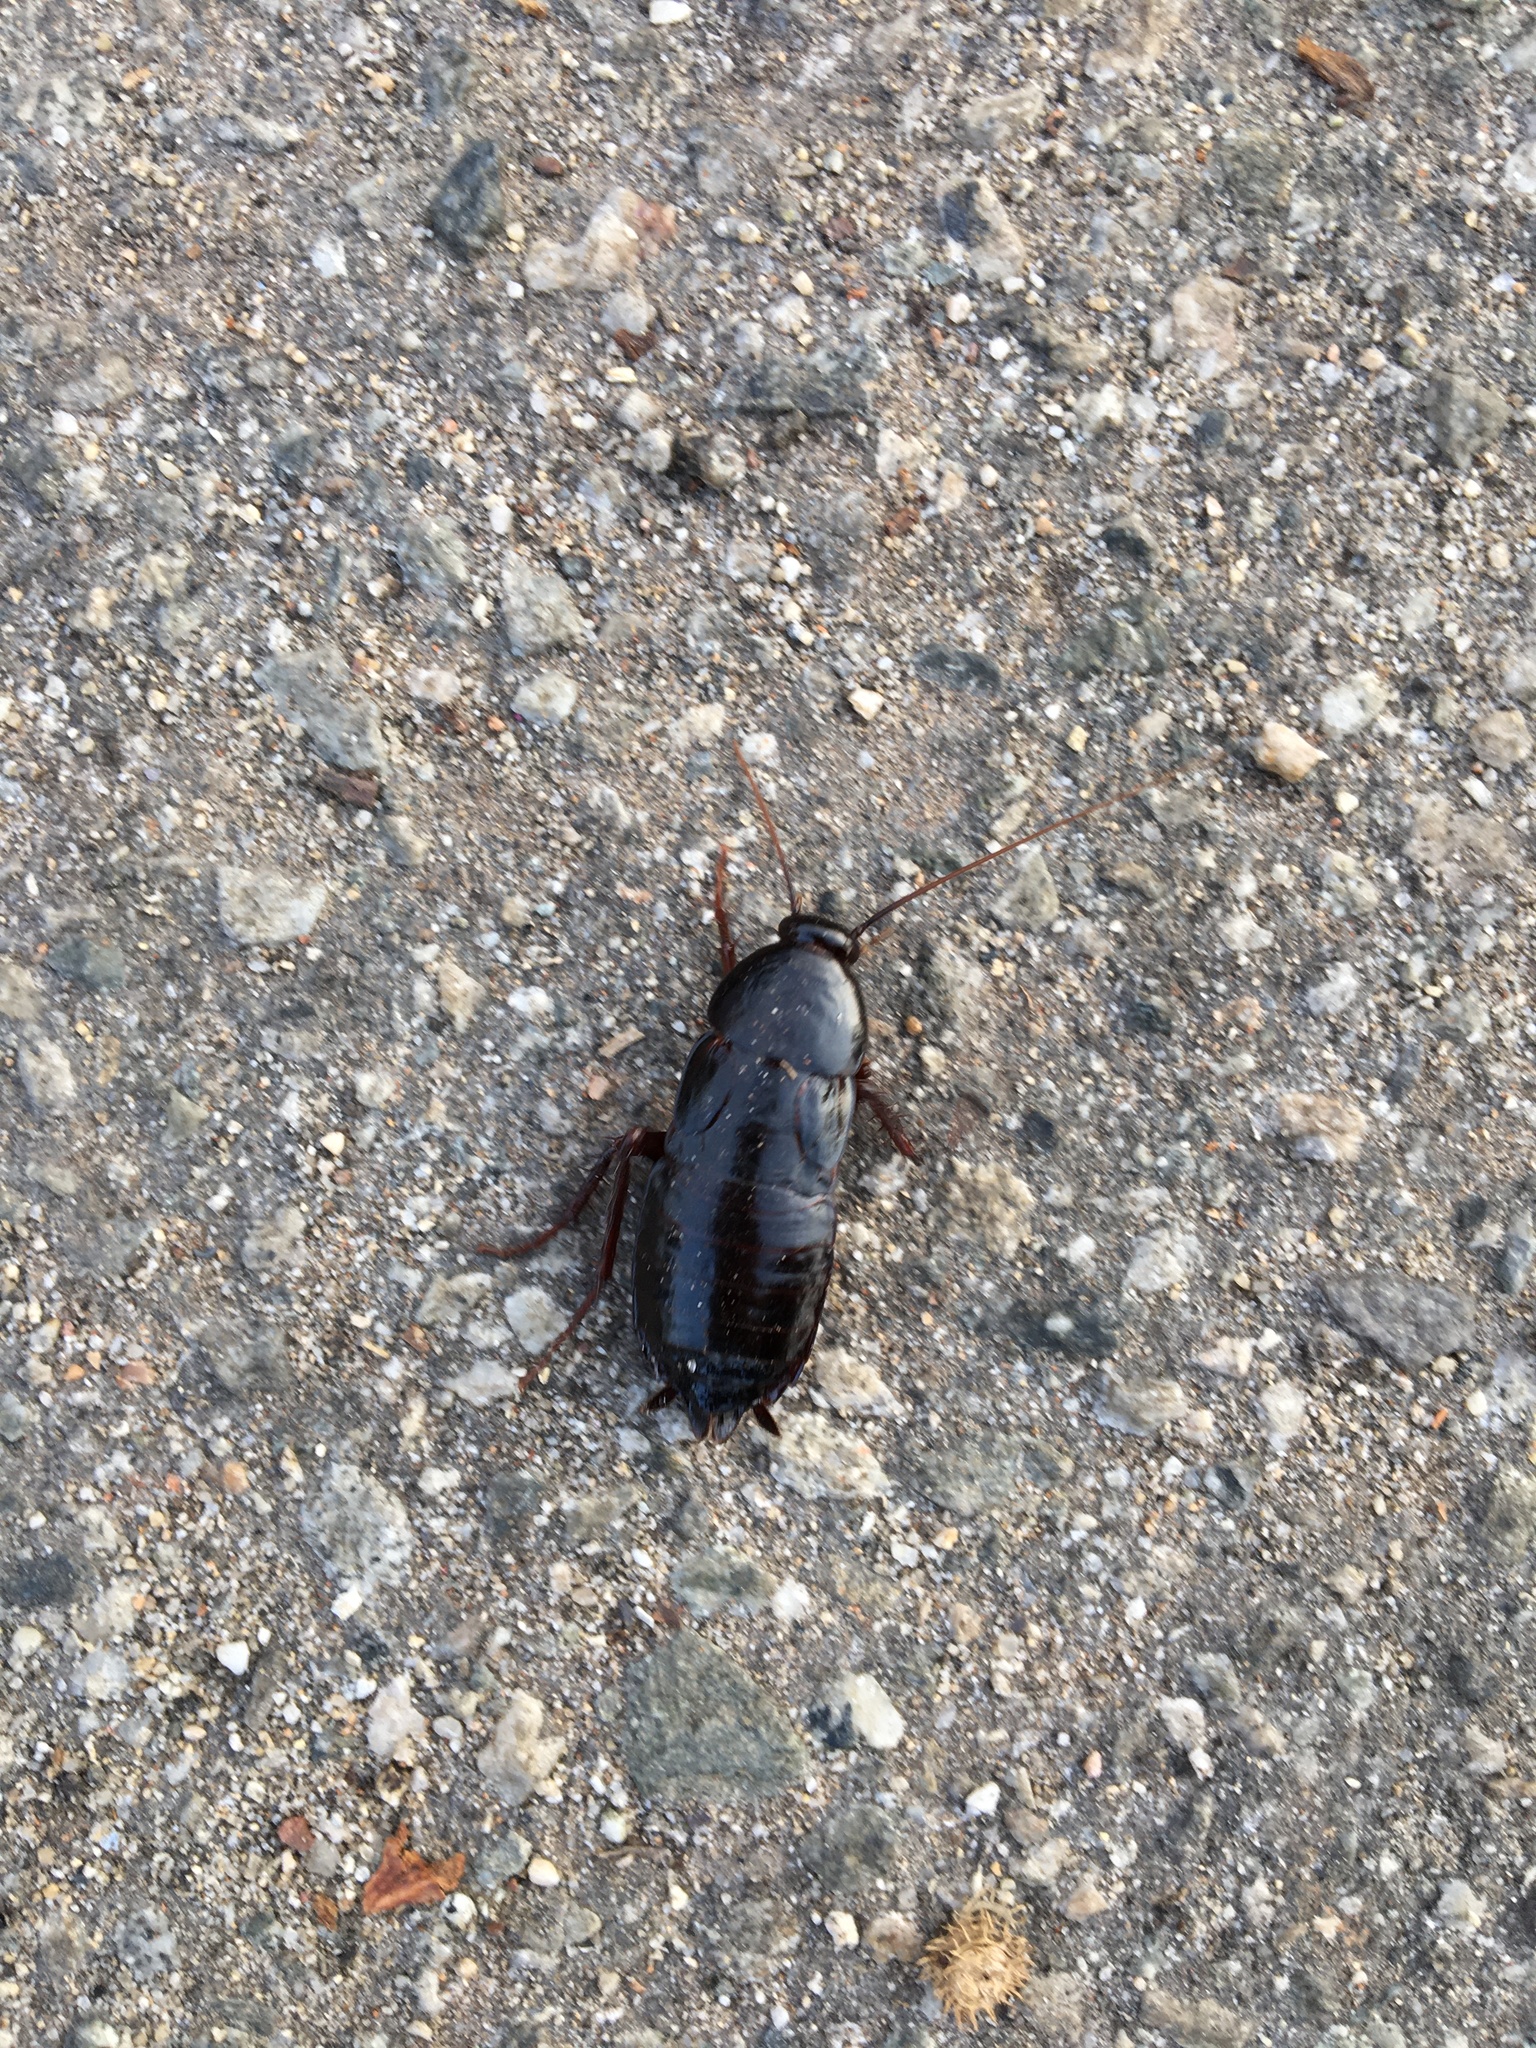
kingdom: Animalia
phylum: Arthropoda
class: Insecta
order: Blattodea
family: Blattidae
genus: Blatta
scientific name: Blatta orientalis
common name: Oriental cockroach
